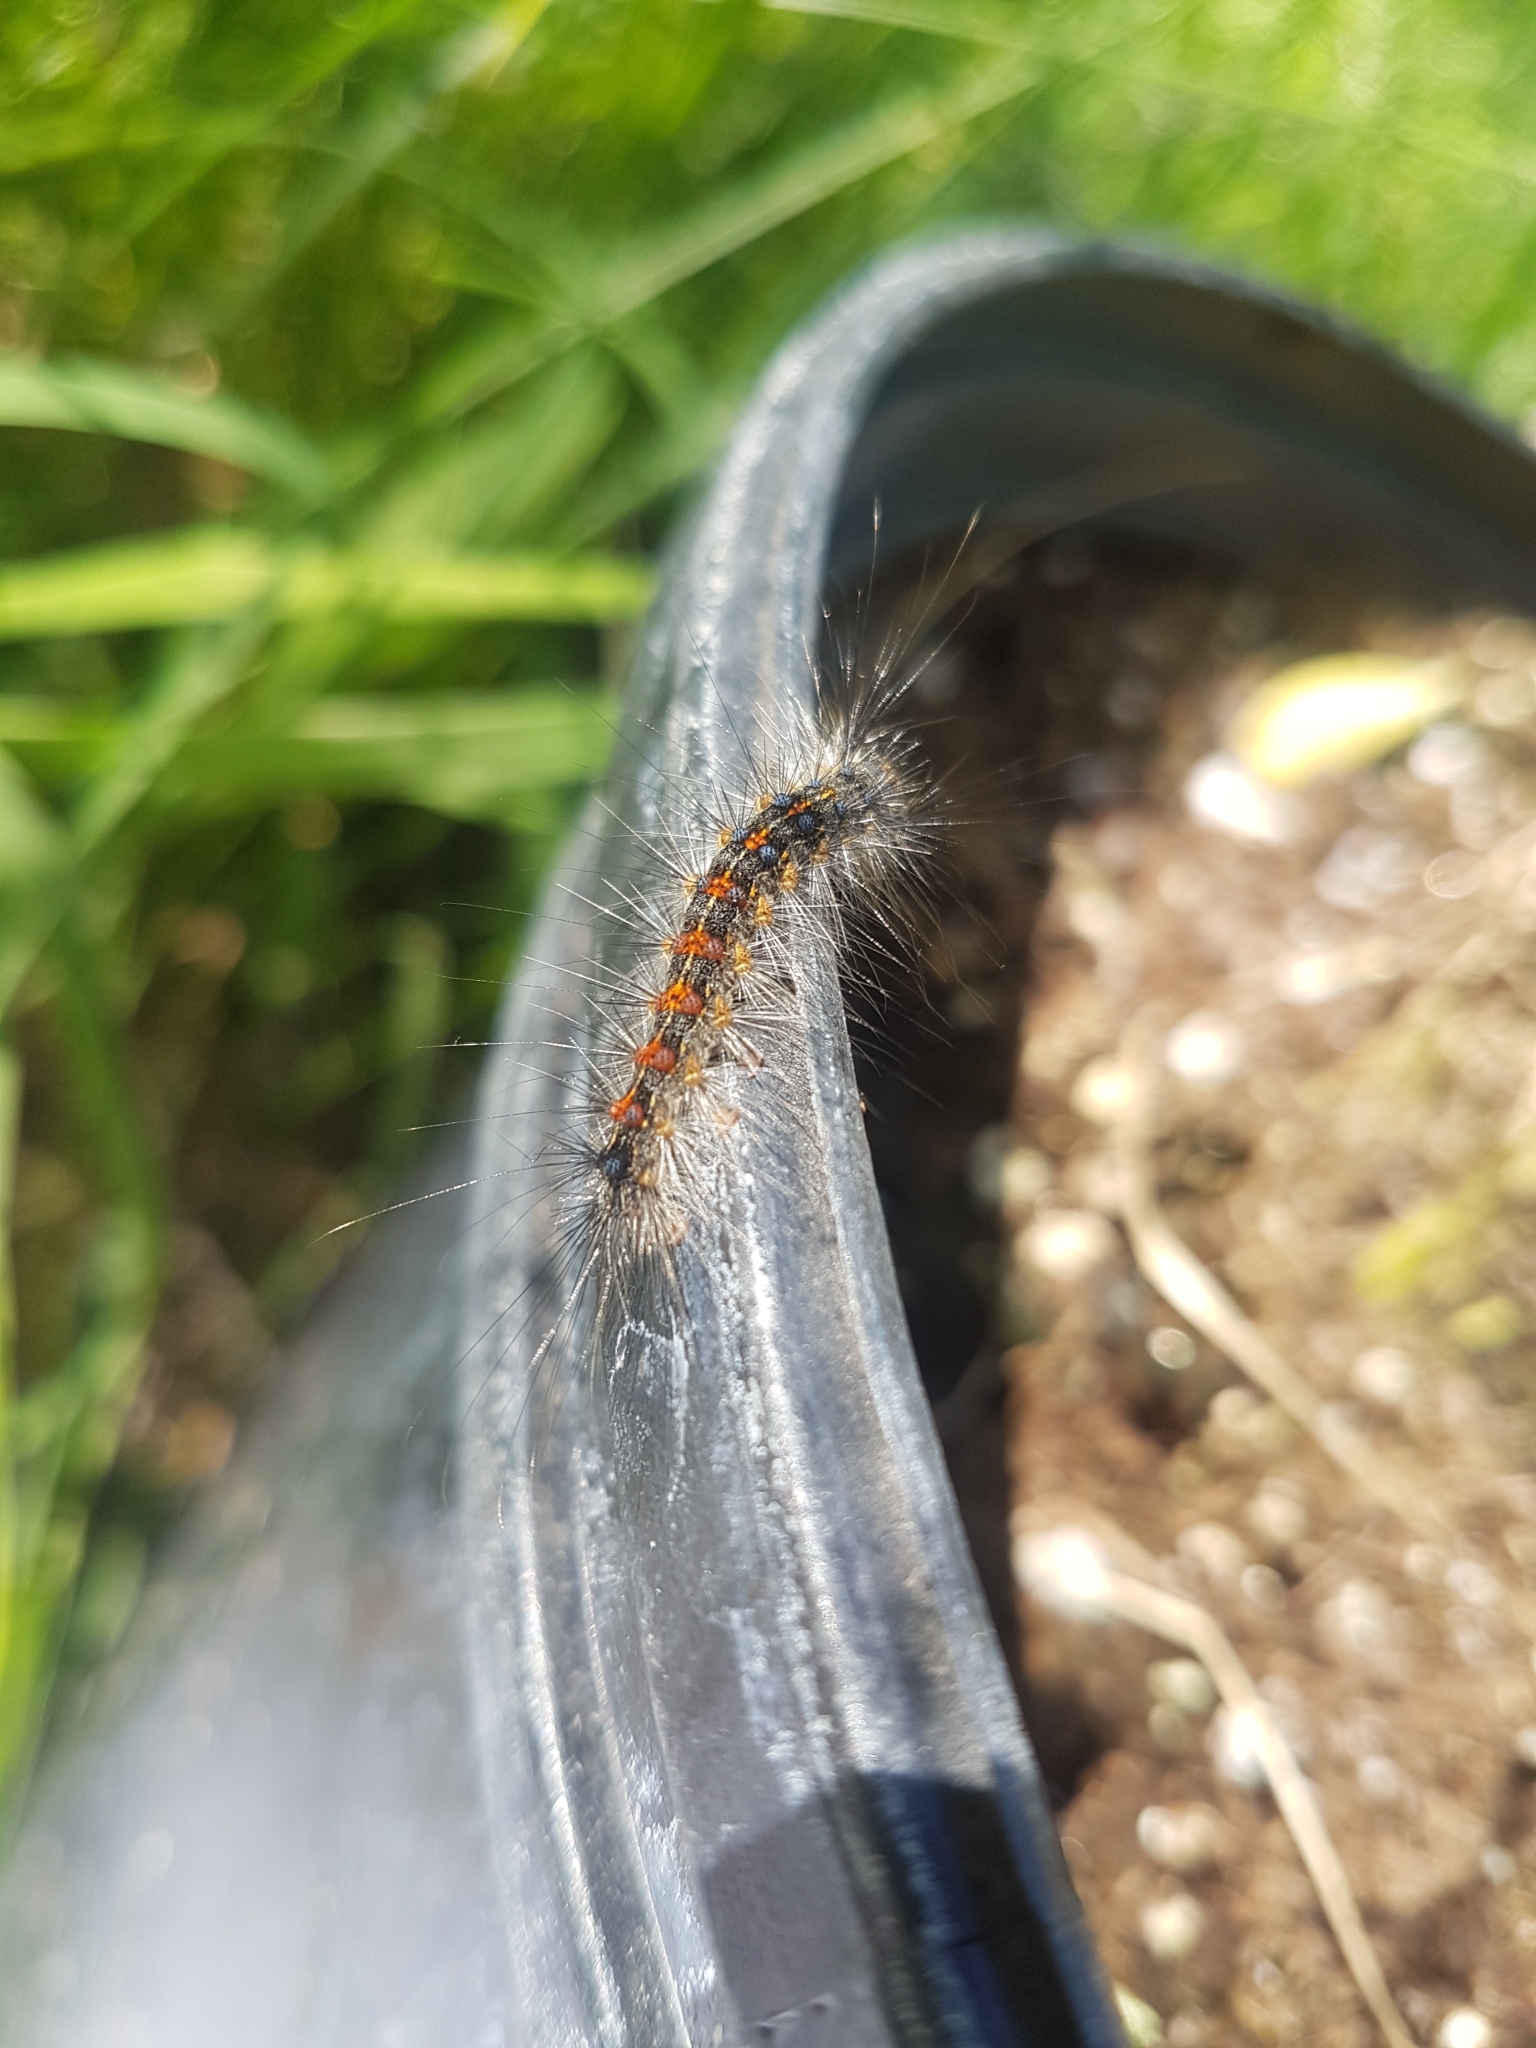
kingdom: Animalia
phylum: Arthropoda
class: Insecta
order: Lepidoptera
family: Erebidae
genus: Lymantria
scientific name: Lymantria dispar
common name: Gypsy moth
